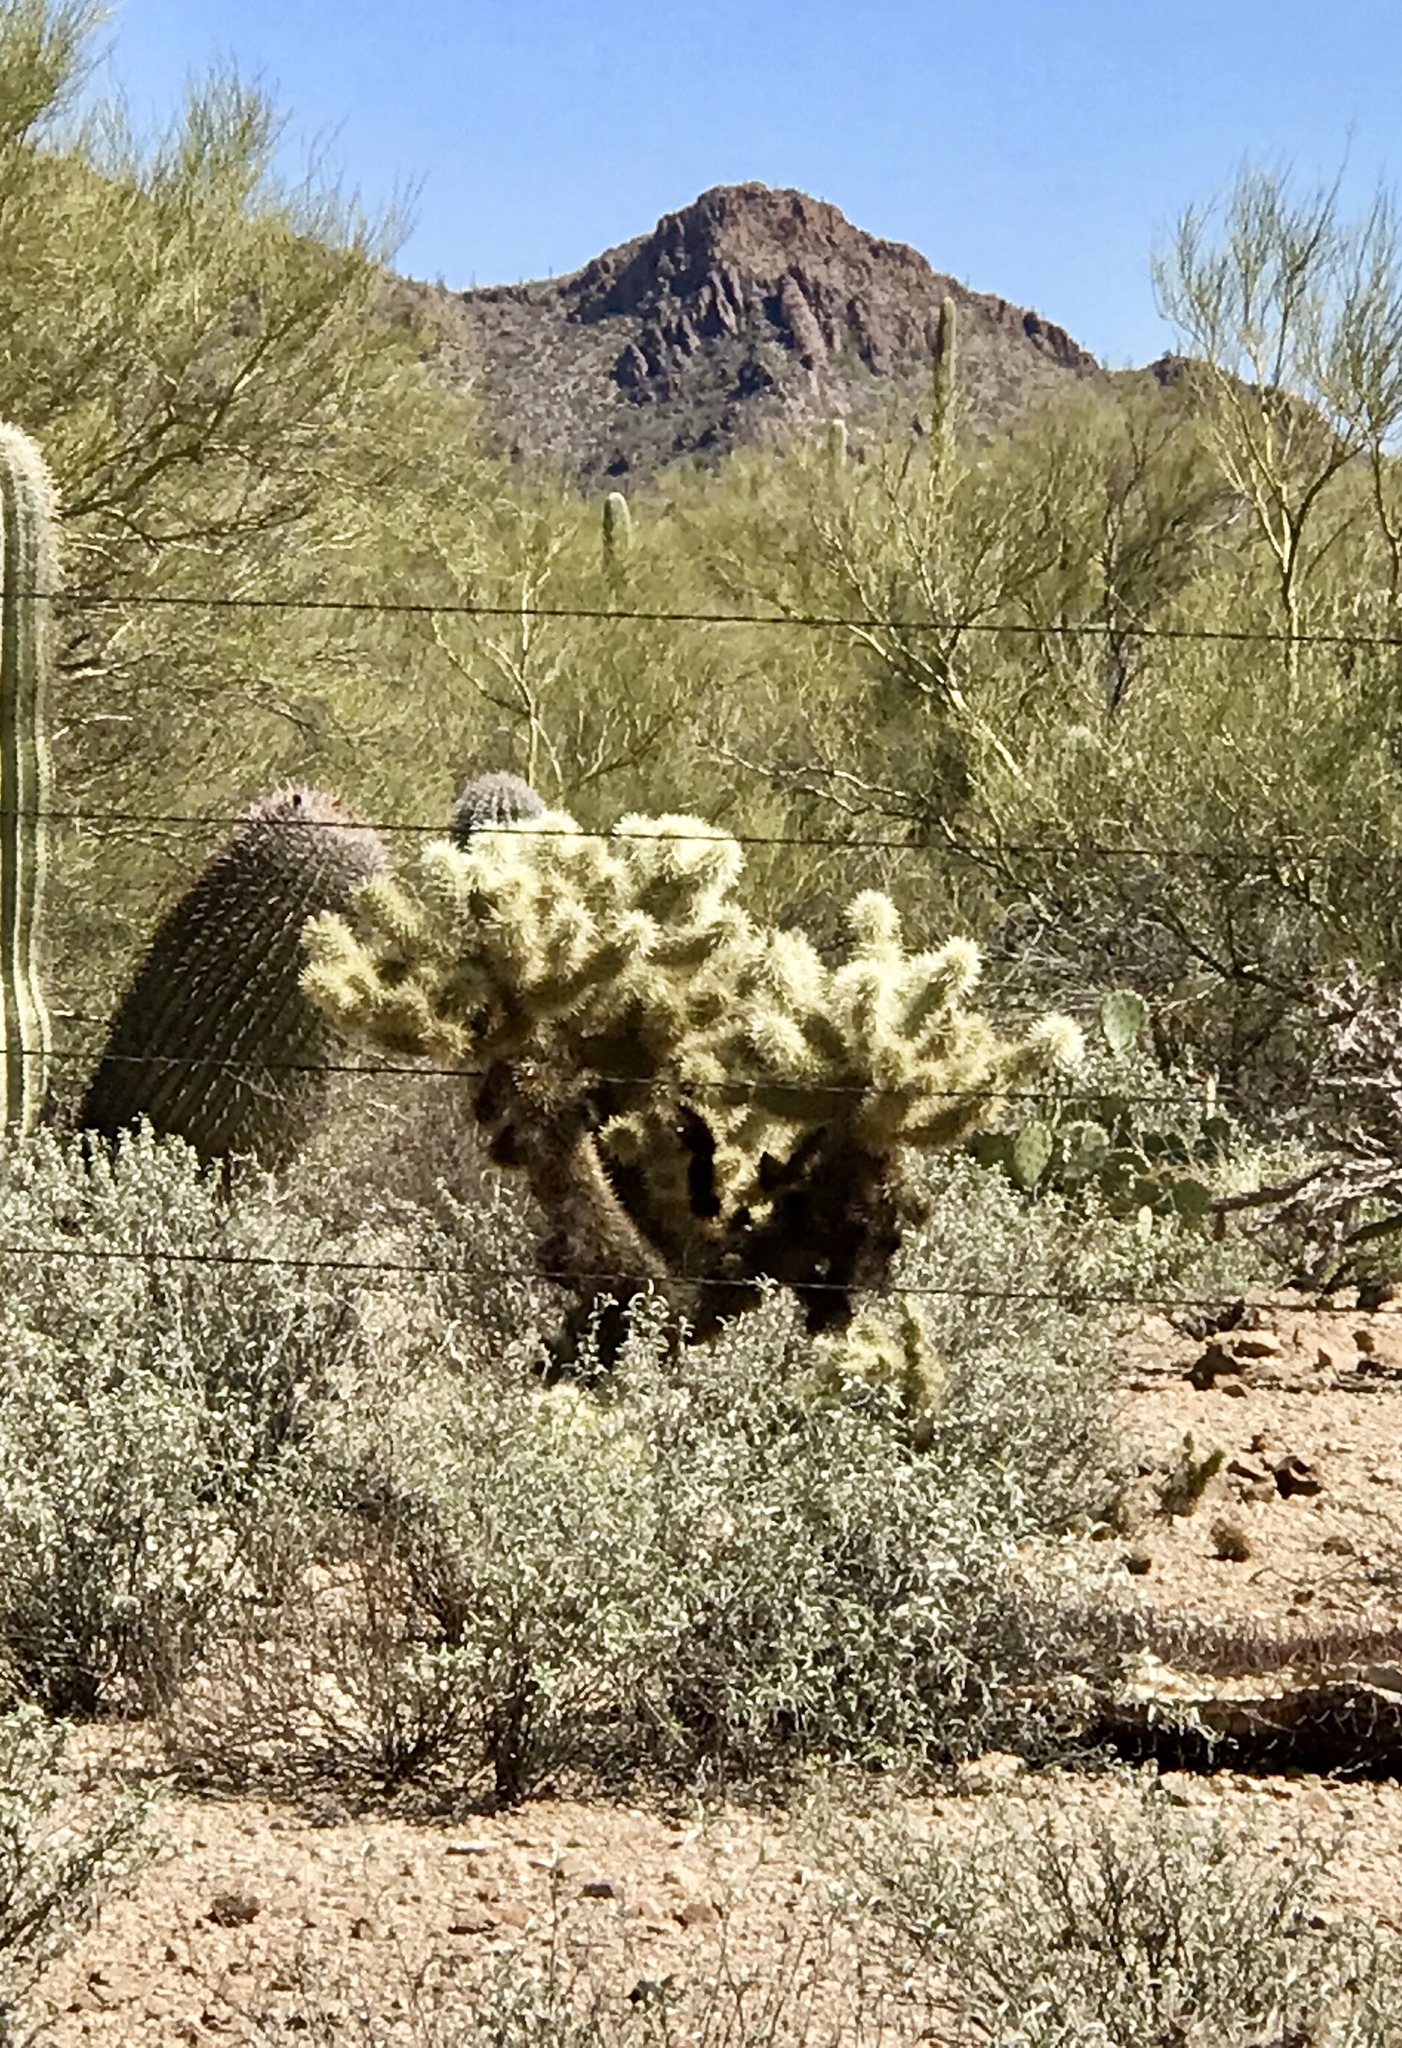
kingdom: Plantae
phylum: Tracheophyta
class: Magnoliopsida
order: Caryophyllales
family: Cactaceae
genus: Cylindropuntia
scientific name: Cylindropuntia fosbergii
